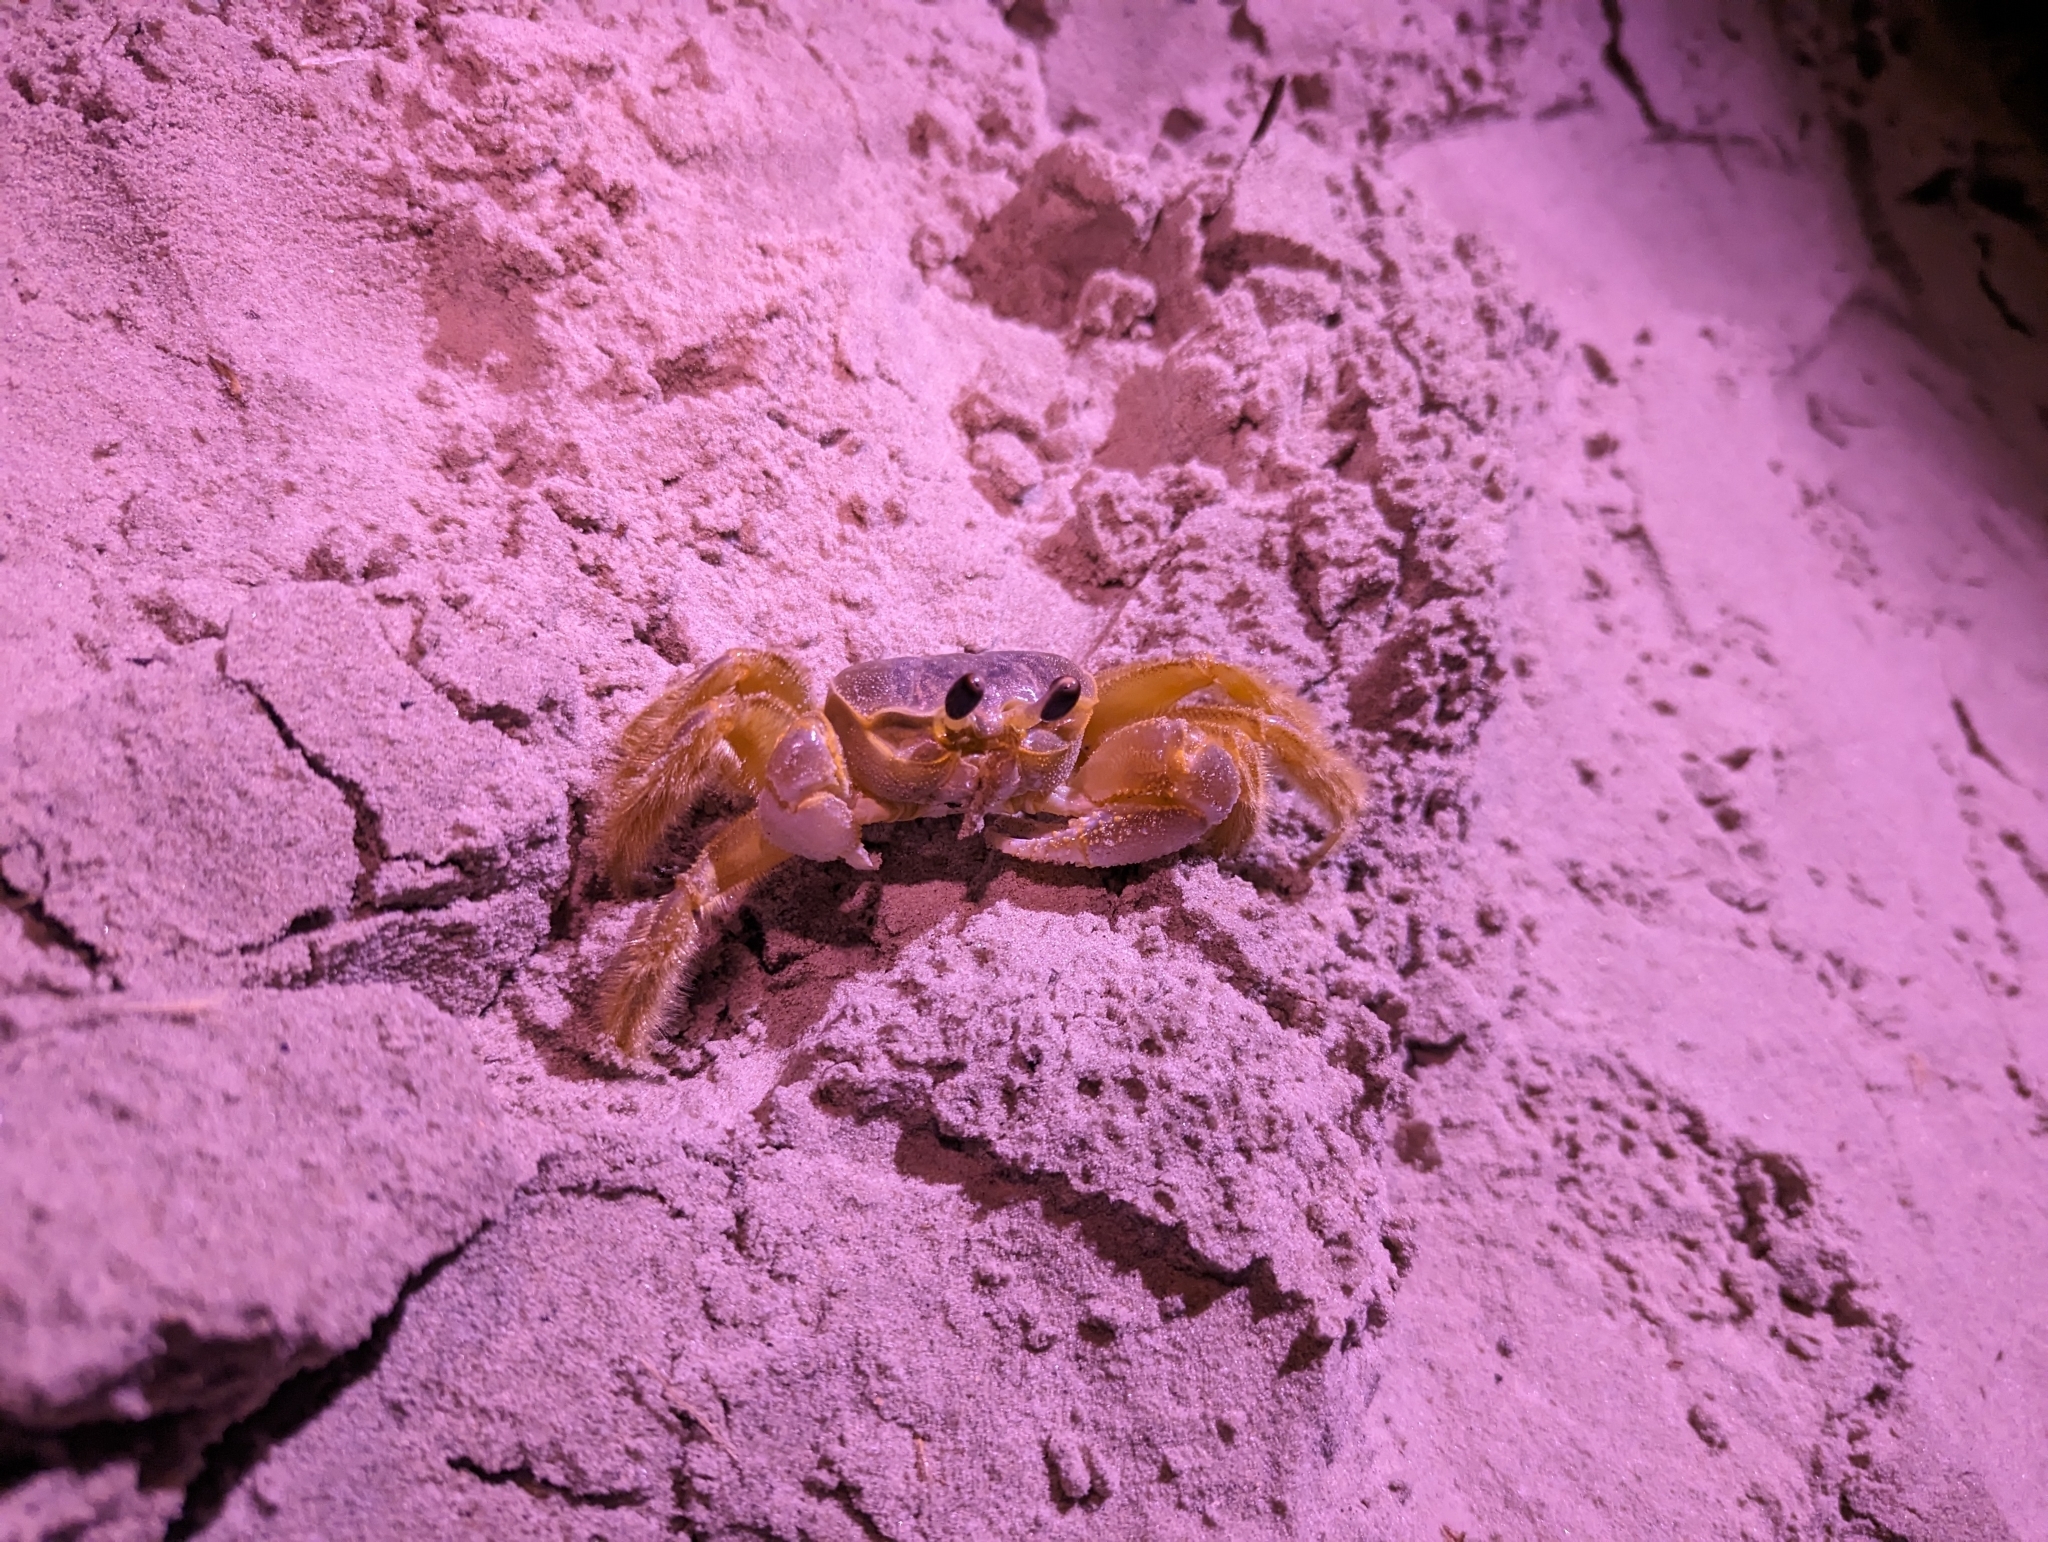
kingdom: Animalia
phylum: Arthropoda
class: Malacostraca
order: Decapoda
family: Ocypodidae
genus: Ocypode
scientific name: Ocypode quadrata
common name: Ghost crab
